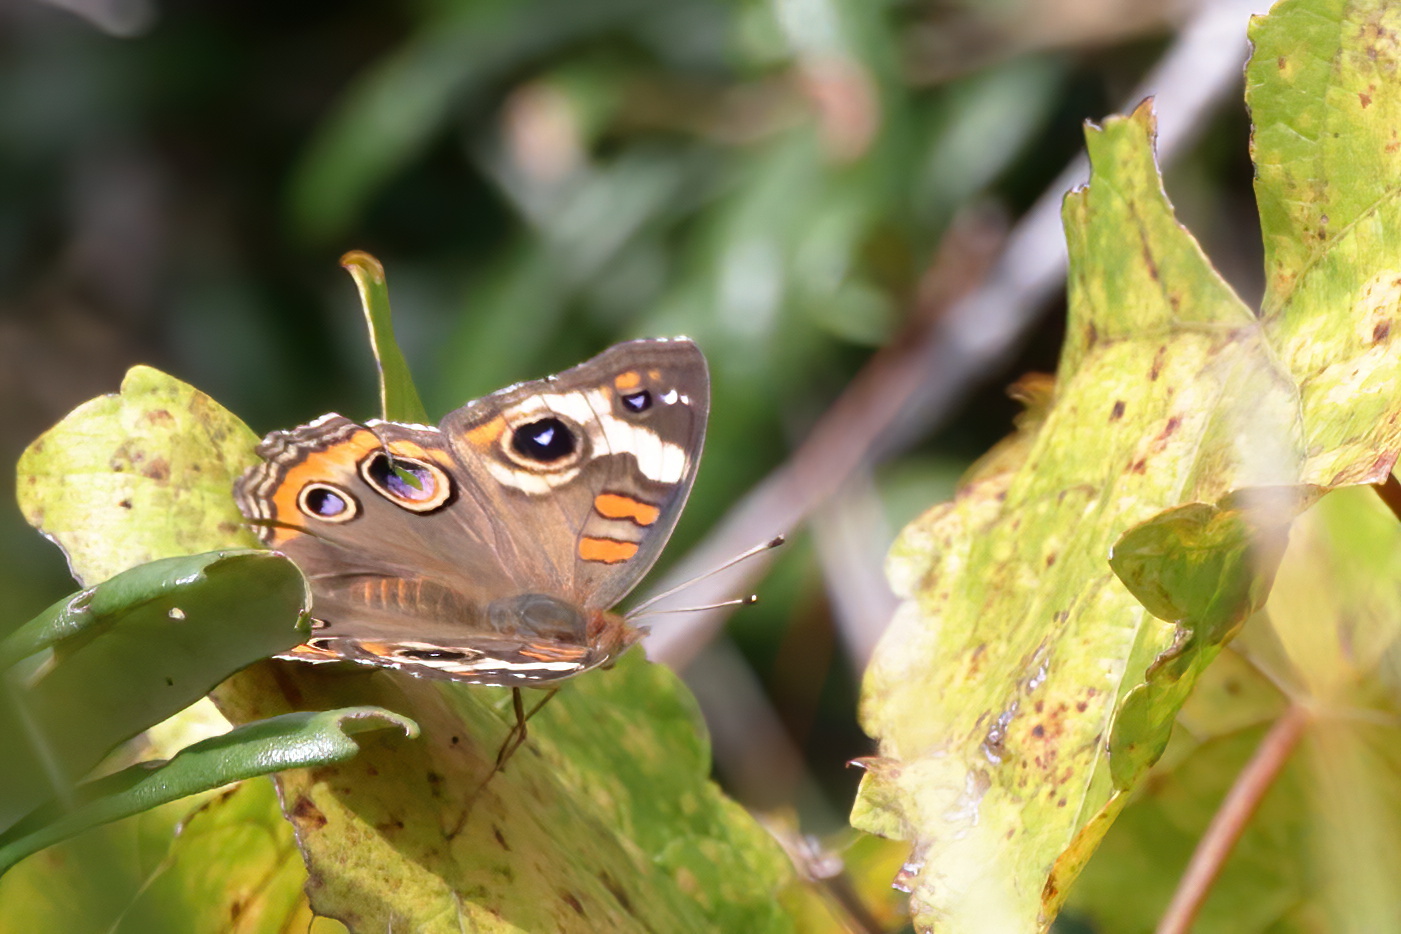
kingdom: Animalia
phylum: Arthropoda
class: Insecta
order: Lepidoptera
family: Nymphalidae
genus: Junonia
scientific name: Junonia coenia
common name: Common buckeye
